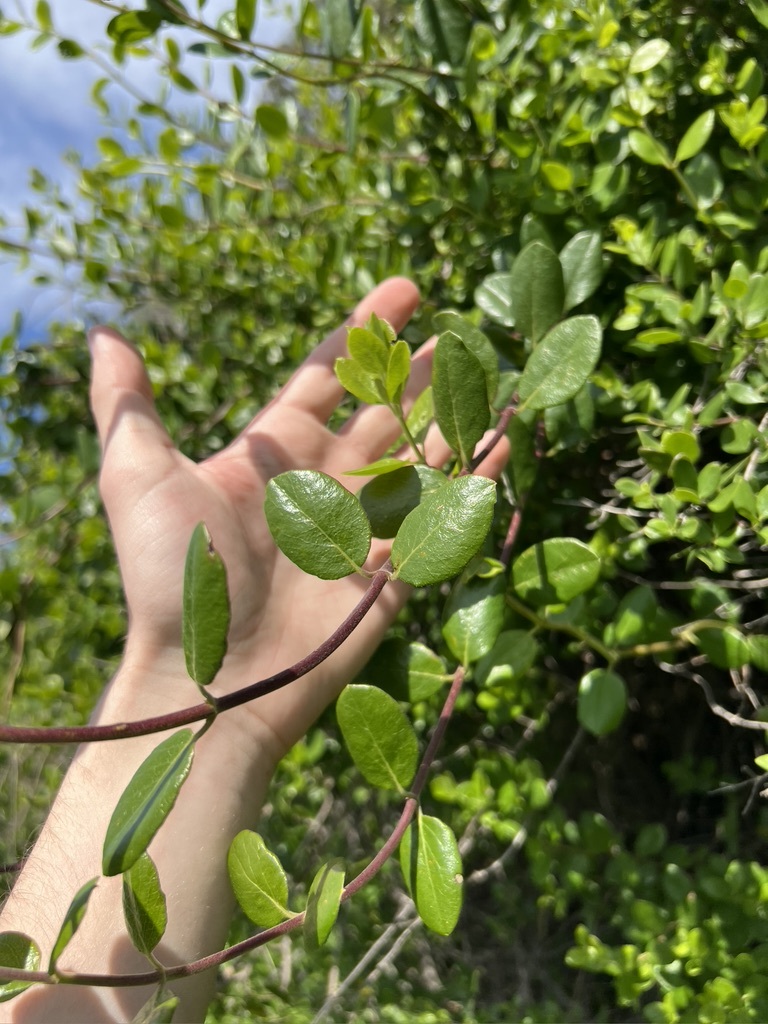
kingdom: Plantae
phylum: Tracheophyta
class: Magnoliopsida
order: Dipsacales
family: Caprifoliaceae
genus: Lonicera
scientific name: Lonicera subspicata
